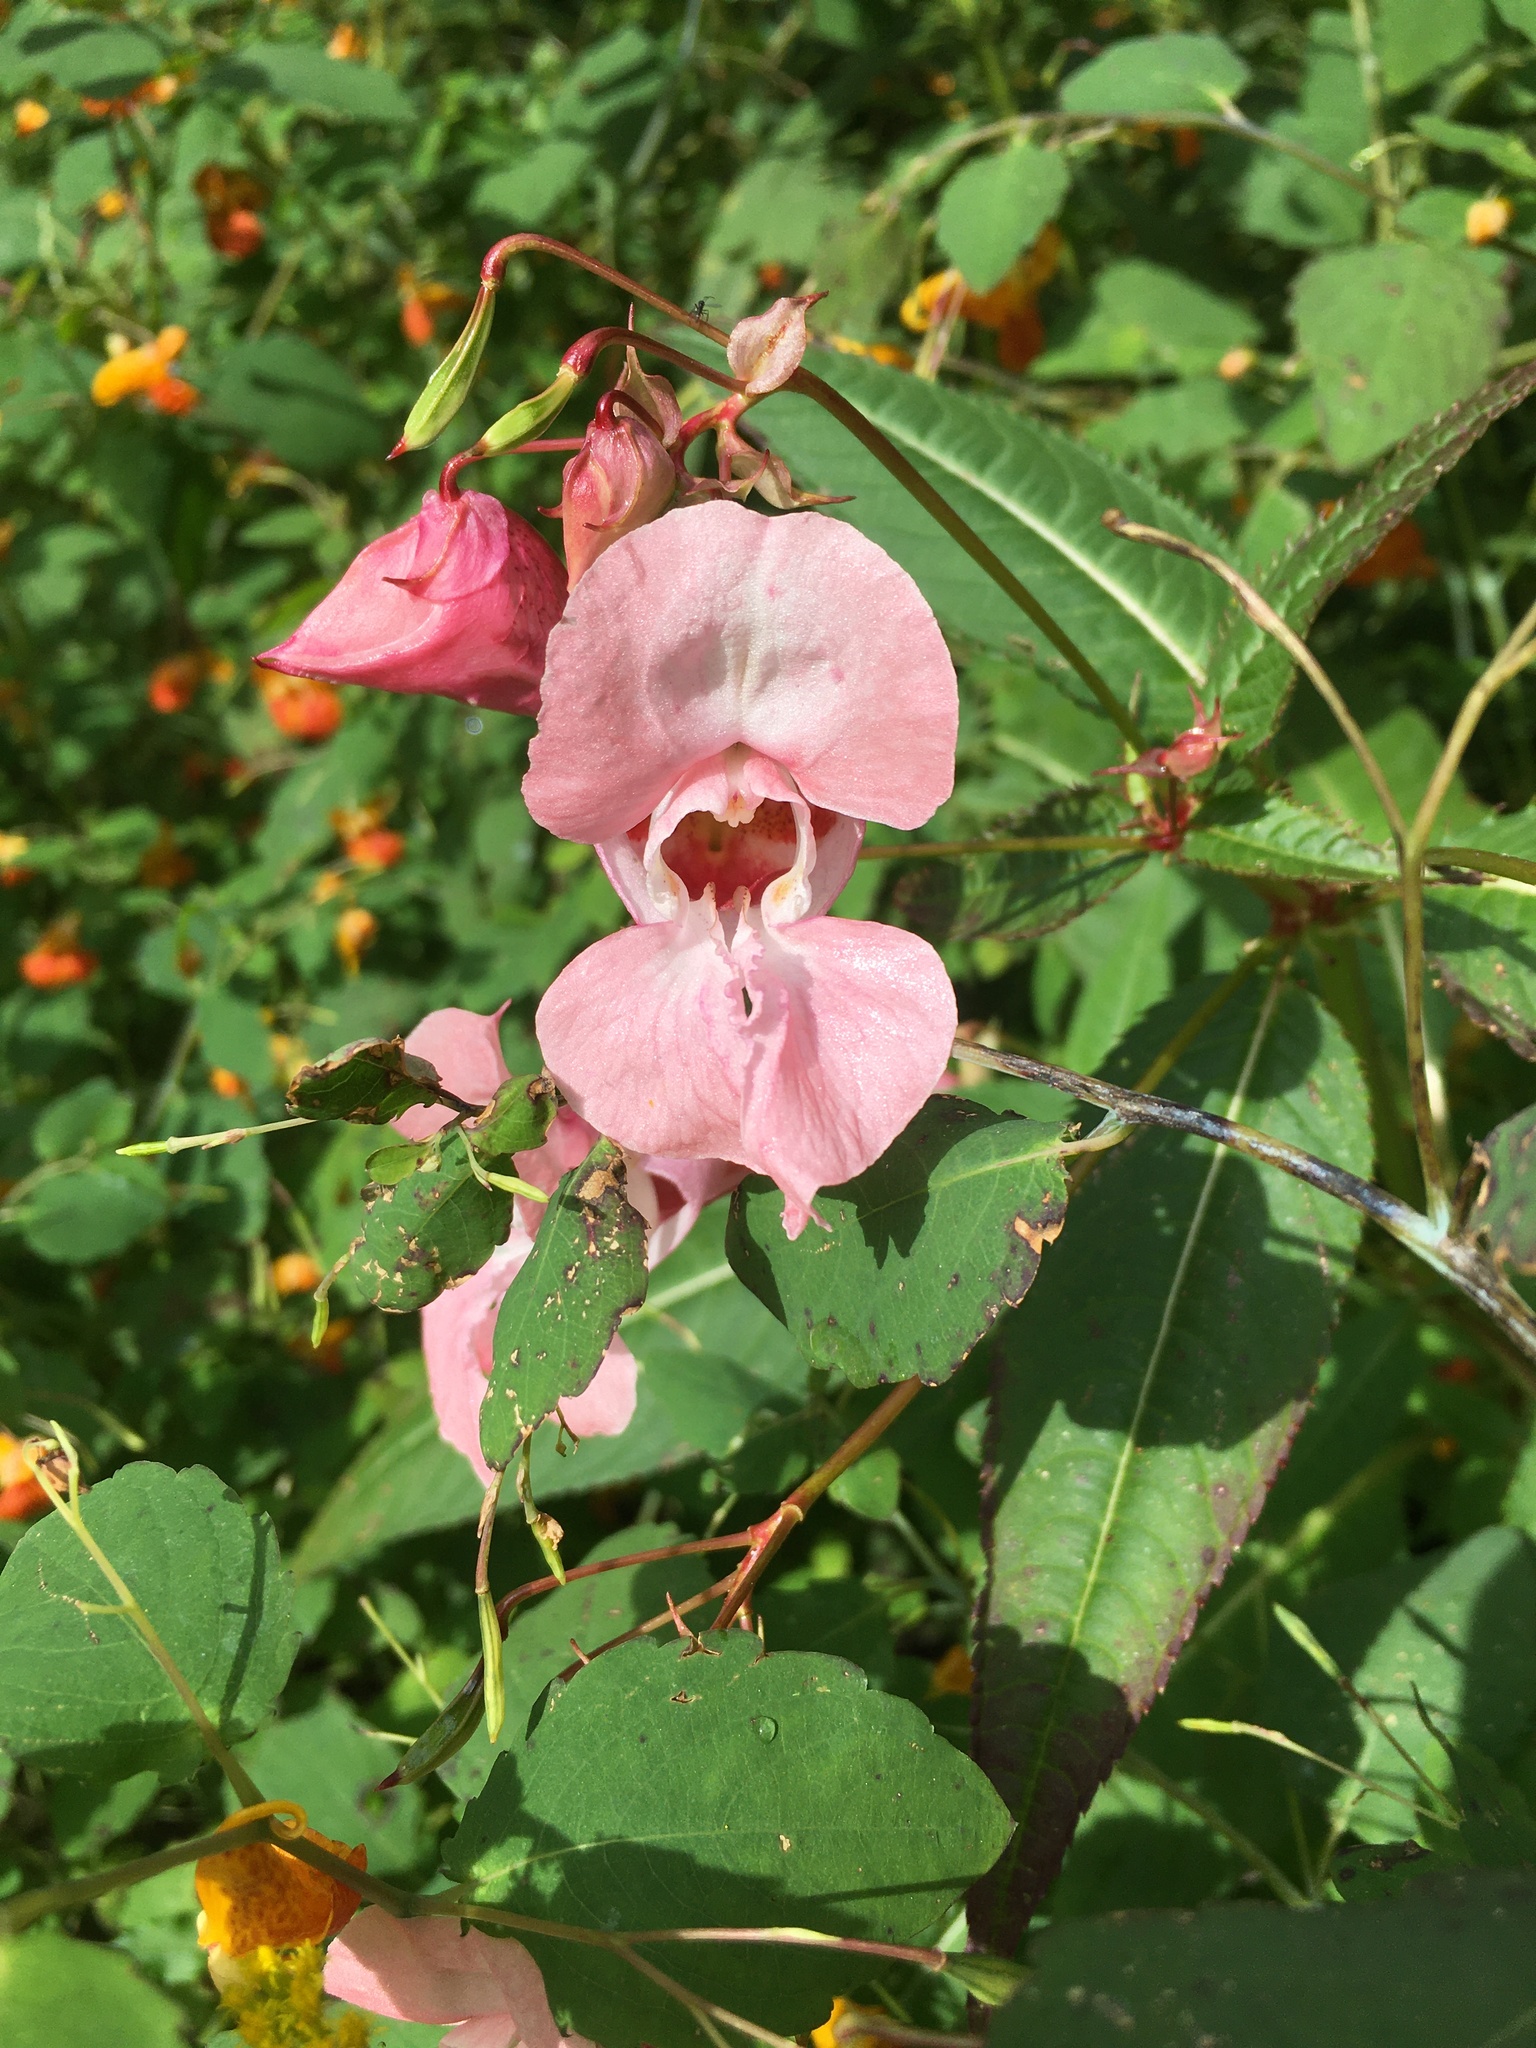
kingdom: Plantae
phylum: Tracheophyta
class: Magnoliopsida
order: Ericales
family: Balsaminaceae
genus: Impatiens
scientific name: Impatiens glandulifera
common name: Himalayan balsam
